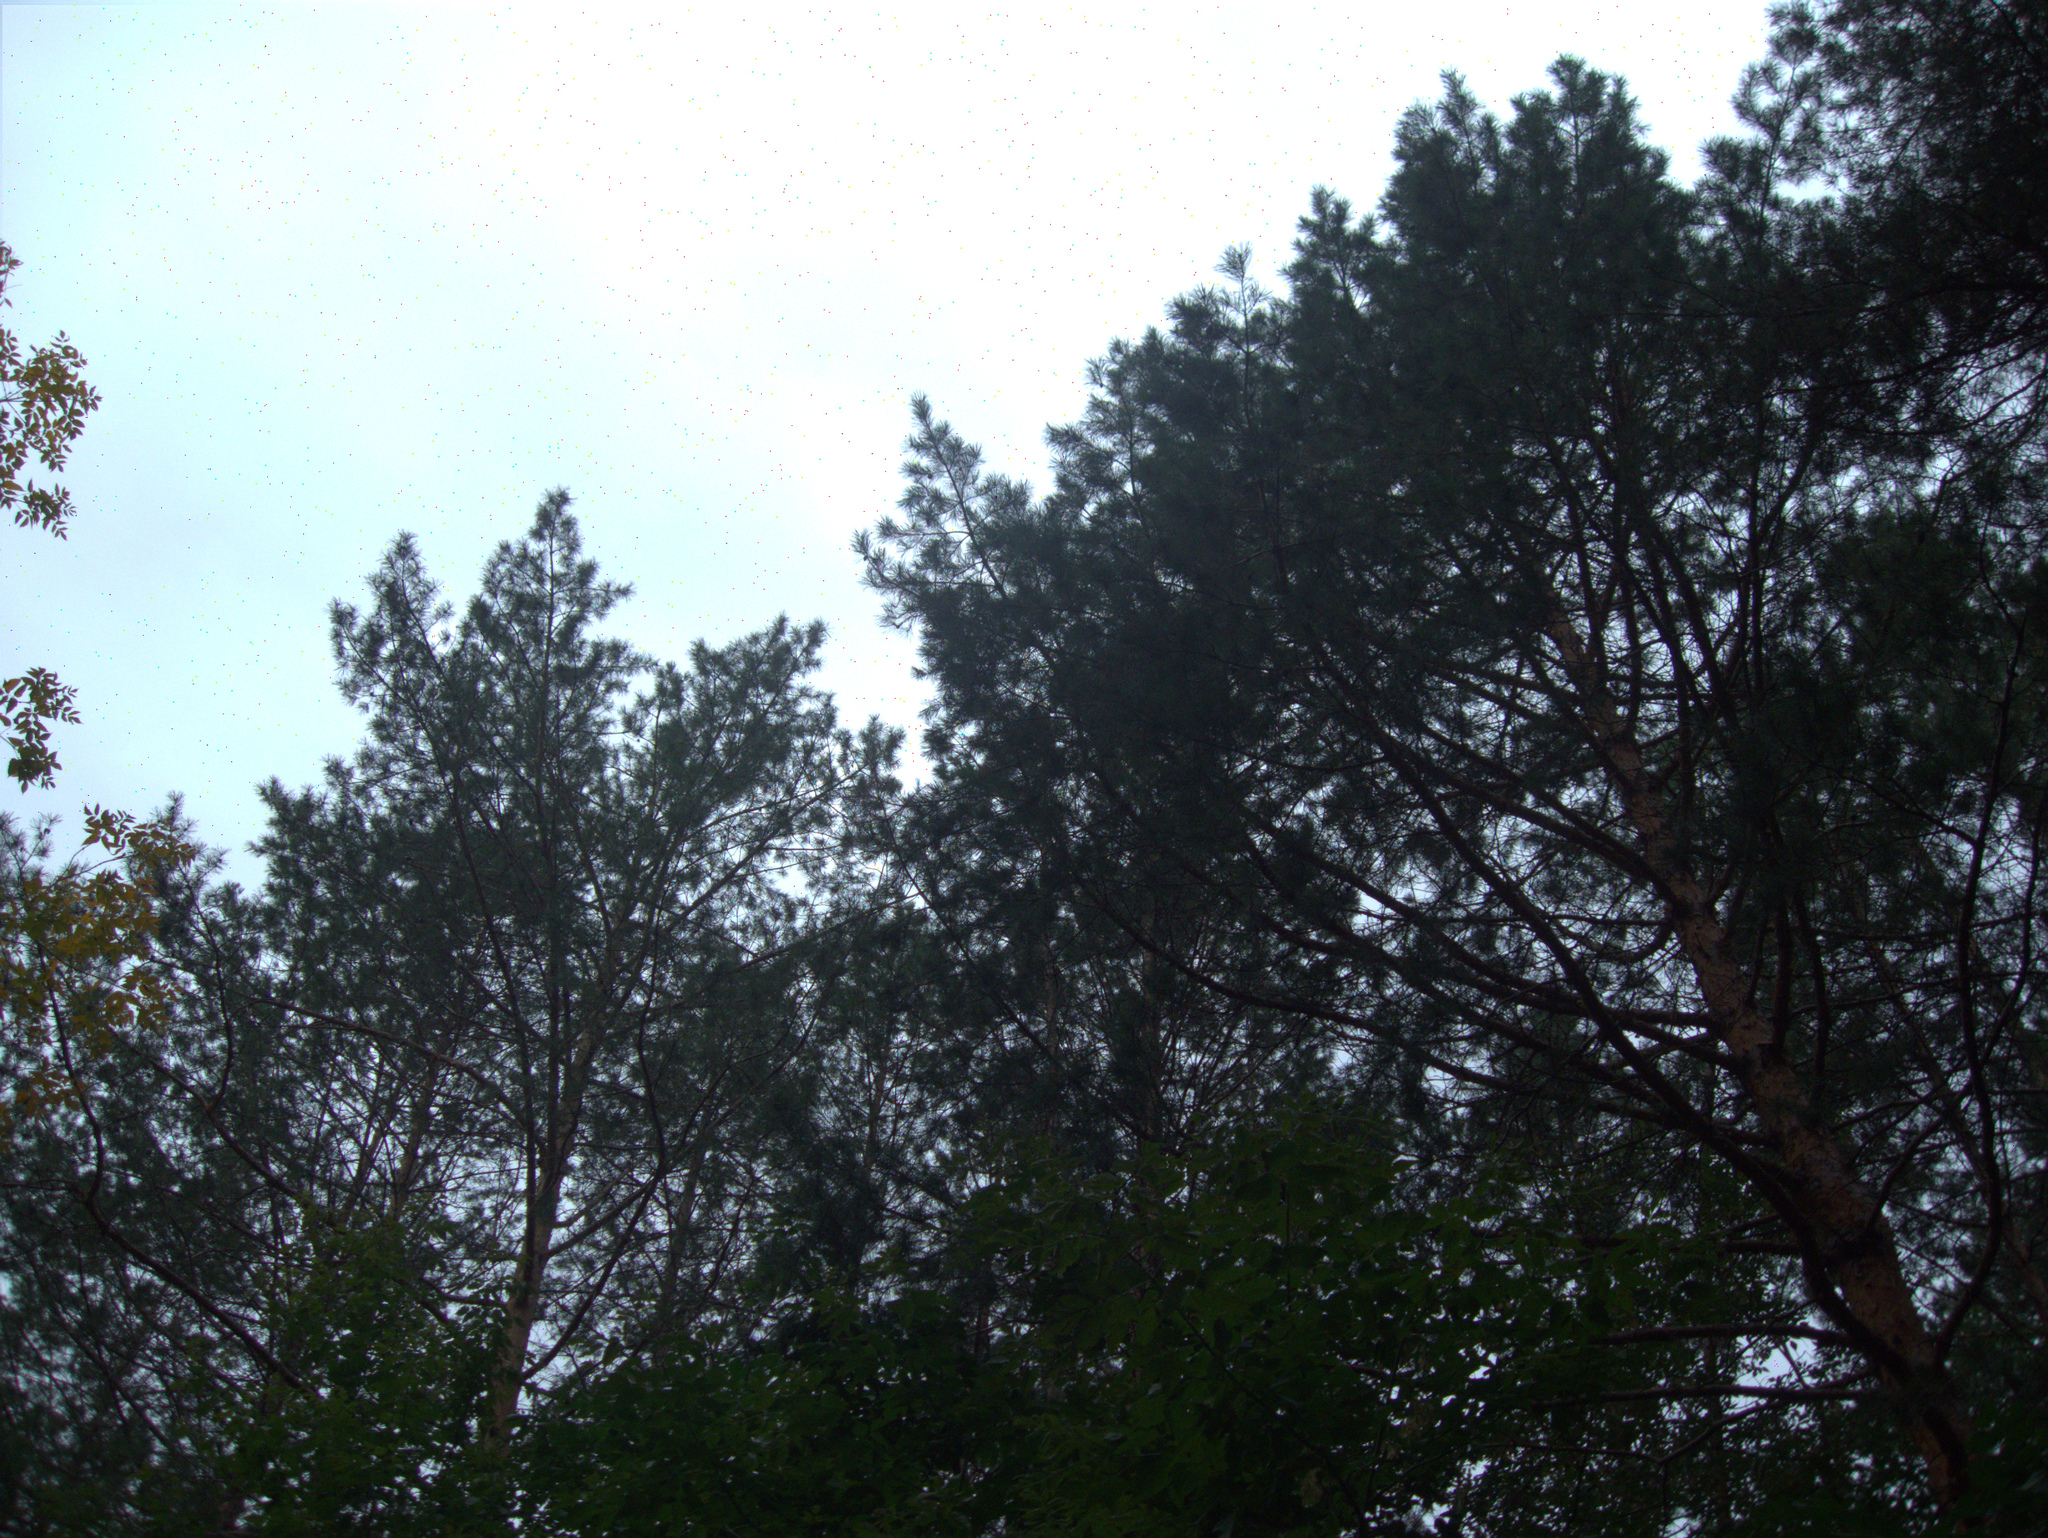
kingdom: Plantae
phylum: Tracheophyta
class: Pinopsida
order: Pinales
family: Pinaceae
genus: Pinus
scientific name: Pinus sylvestris
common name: Scots pine
